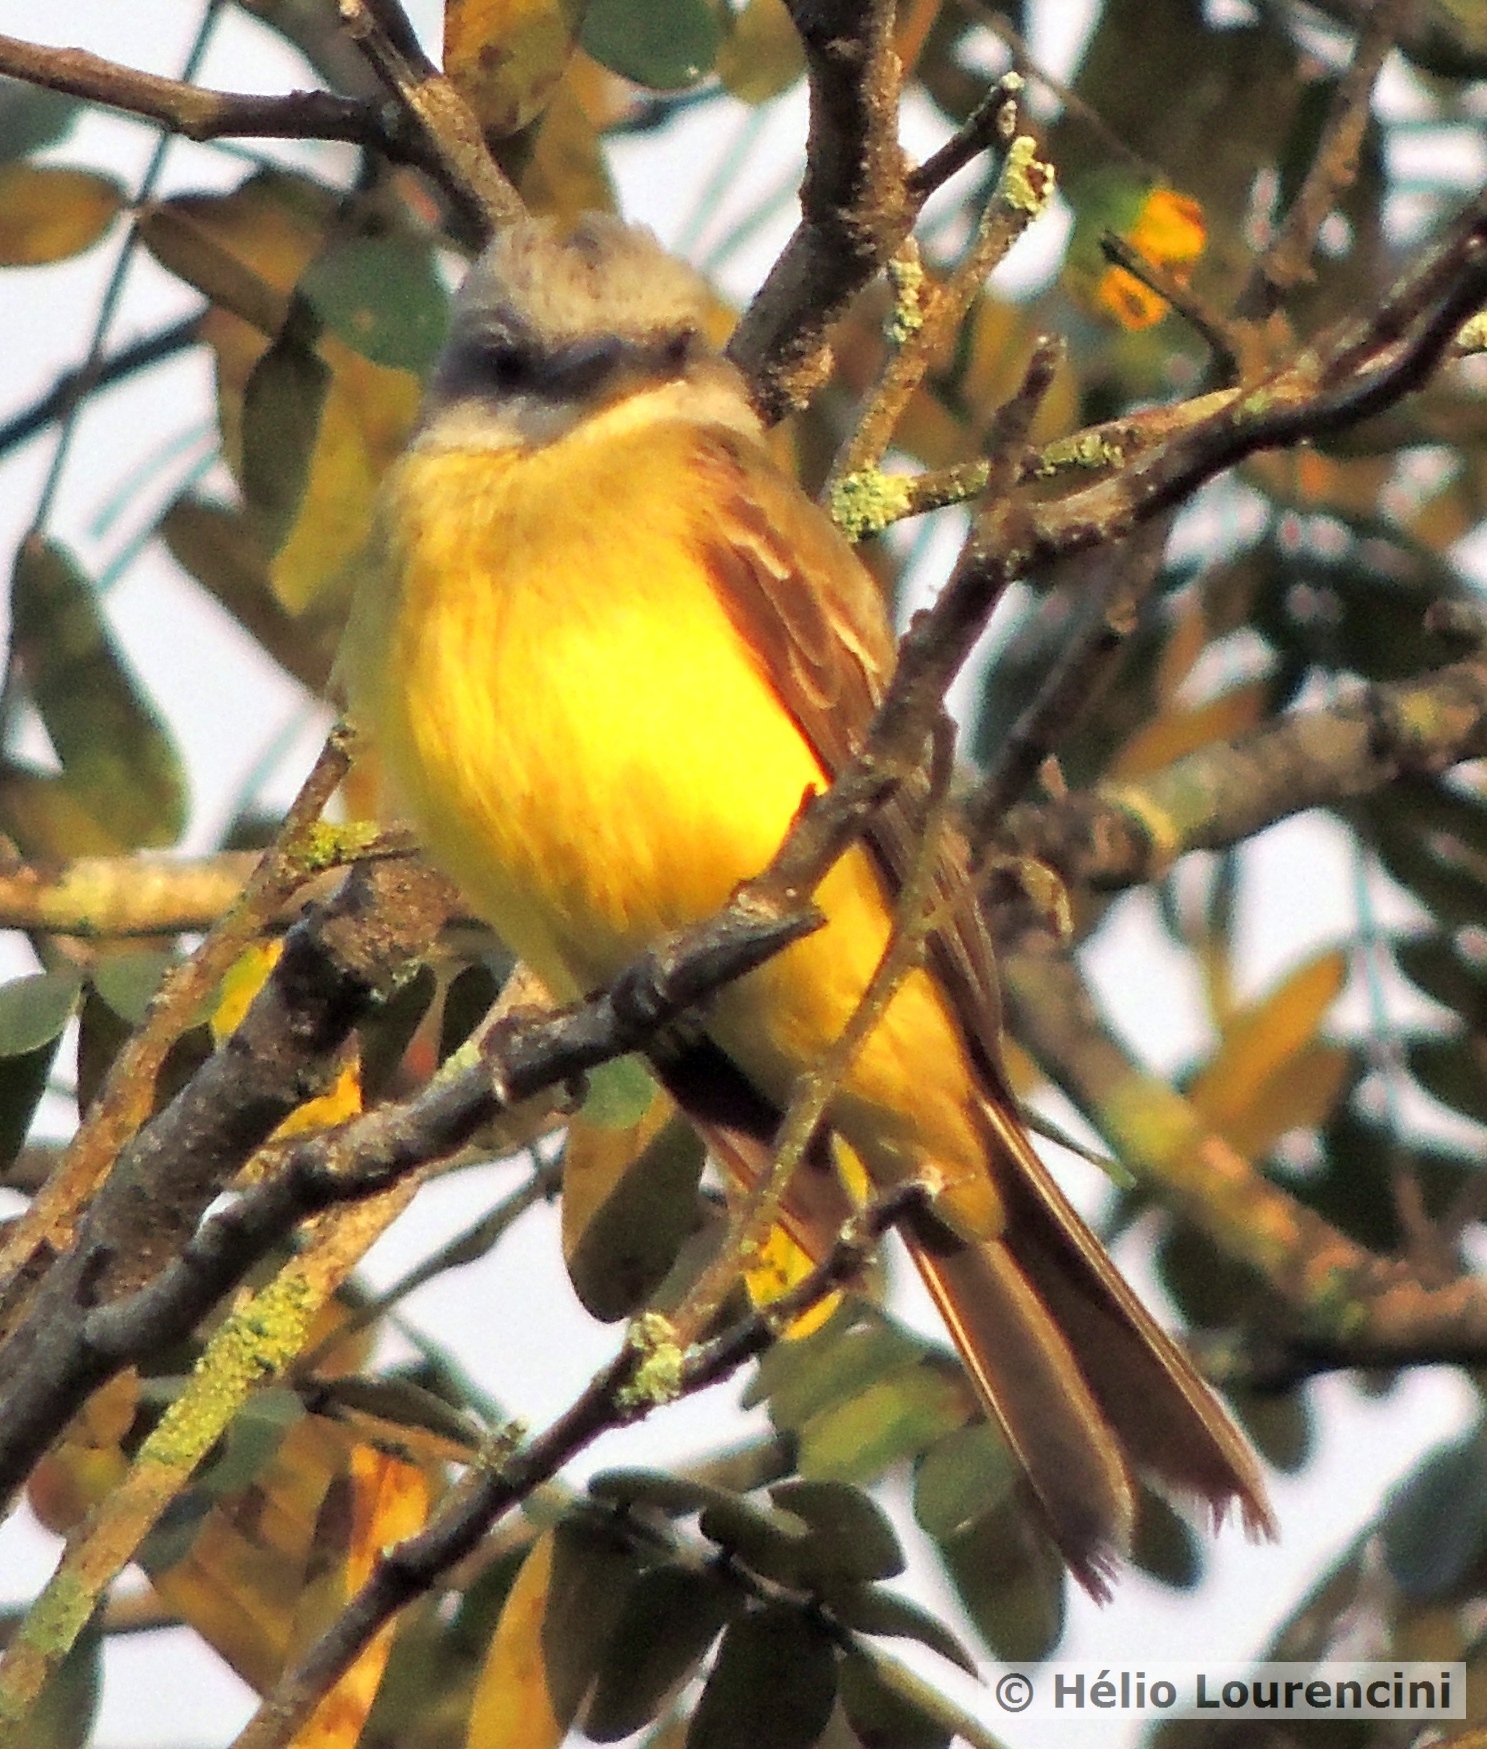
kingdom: Animalia
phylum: Chordata
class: Aves
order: Passeriformes
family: Tyrannidae
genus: Tyrannus
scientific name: Tyrannus melancholicus
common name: Tropical kingbird
